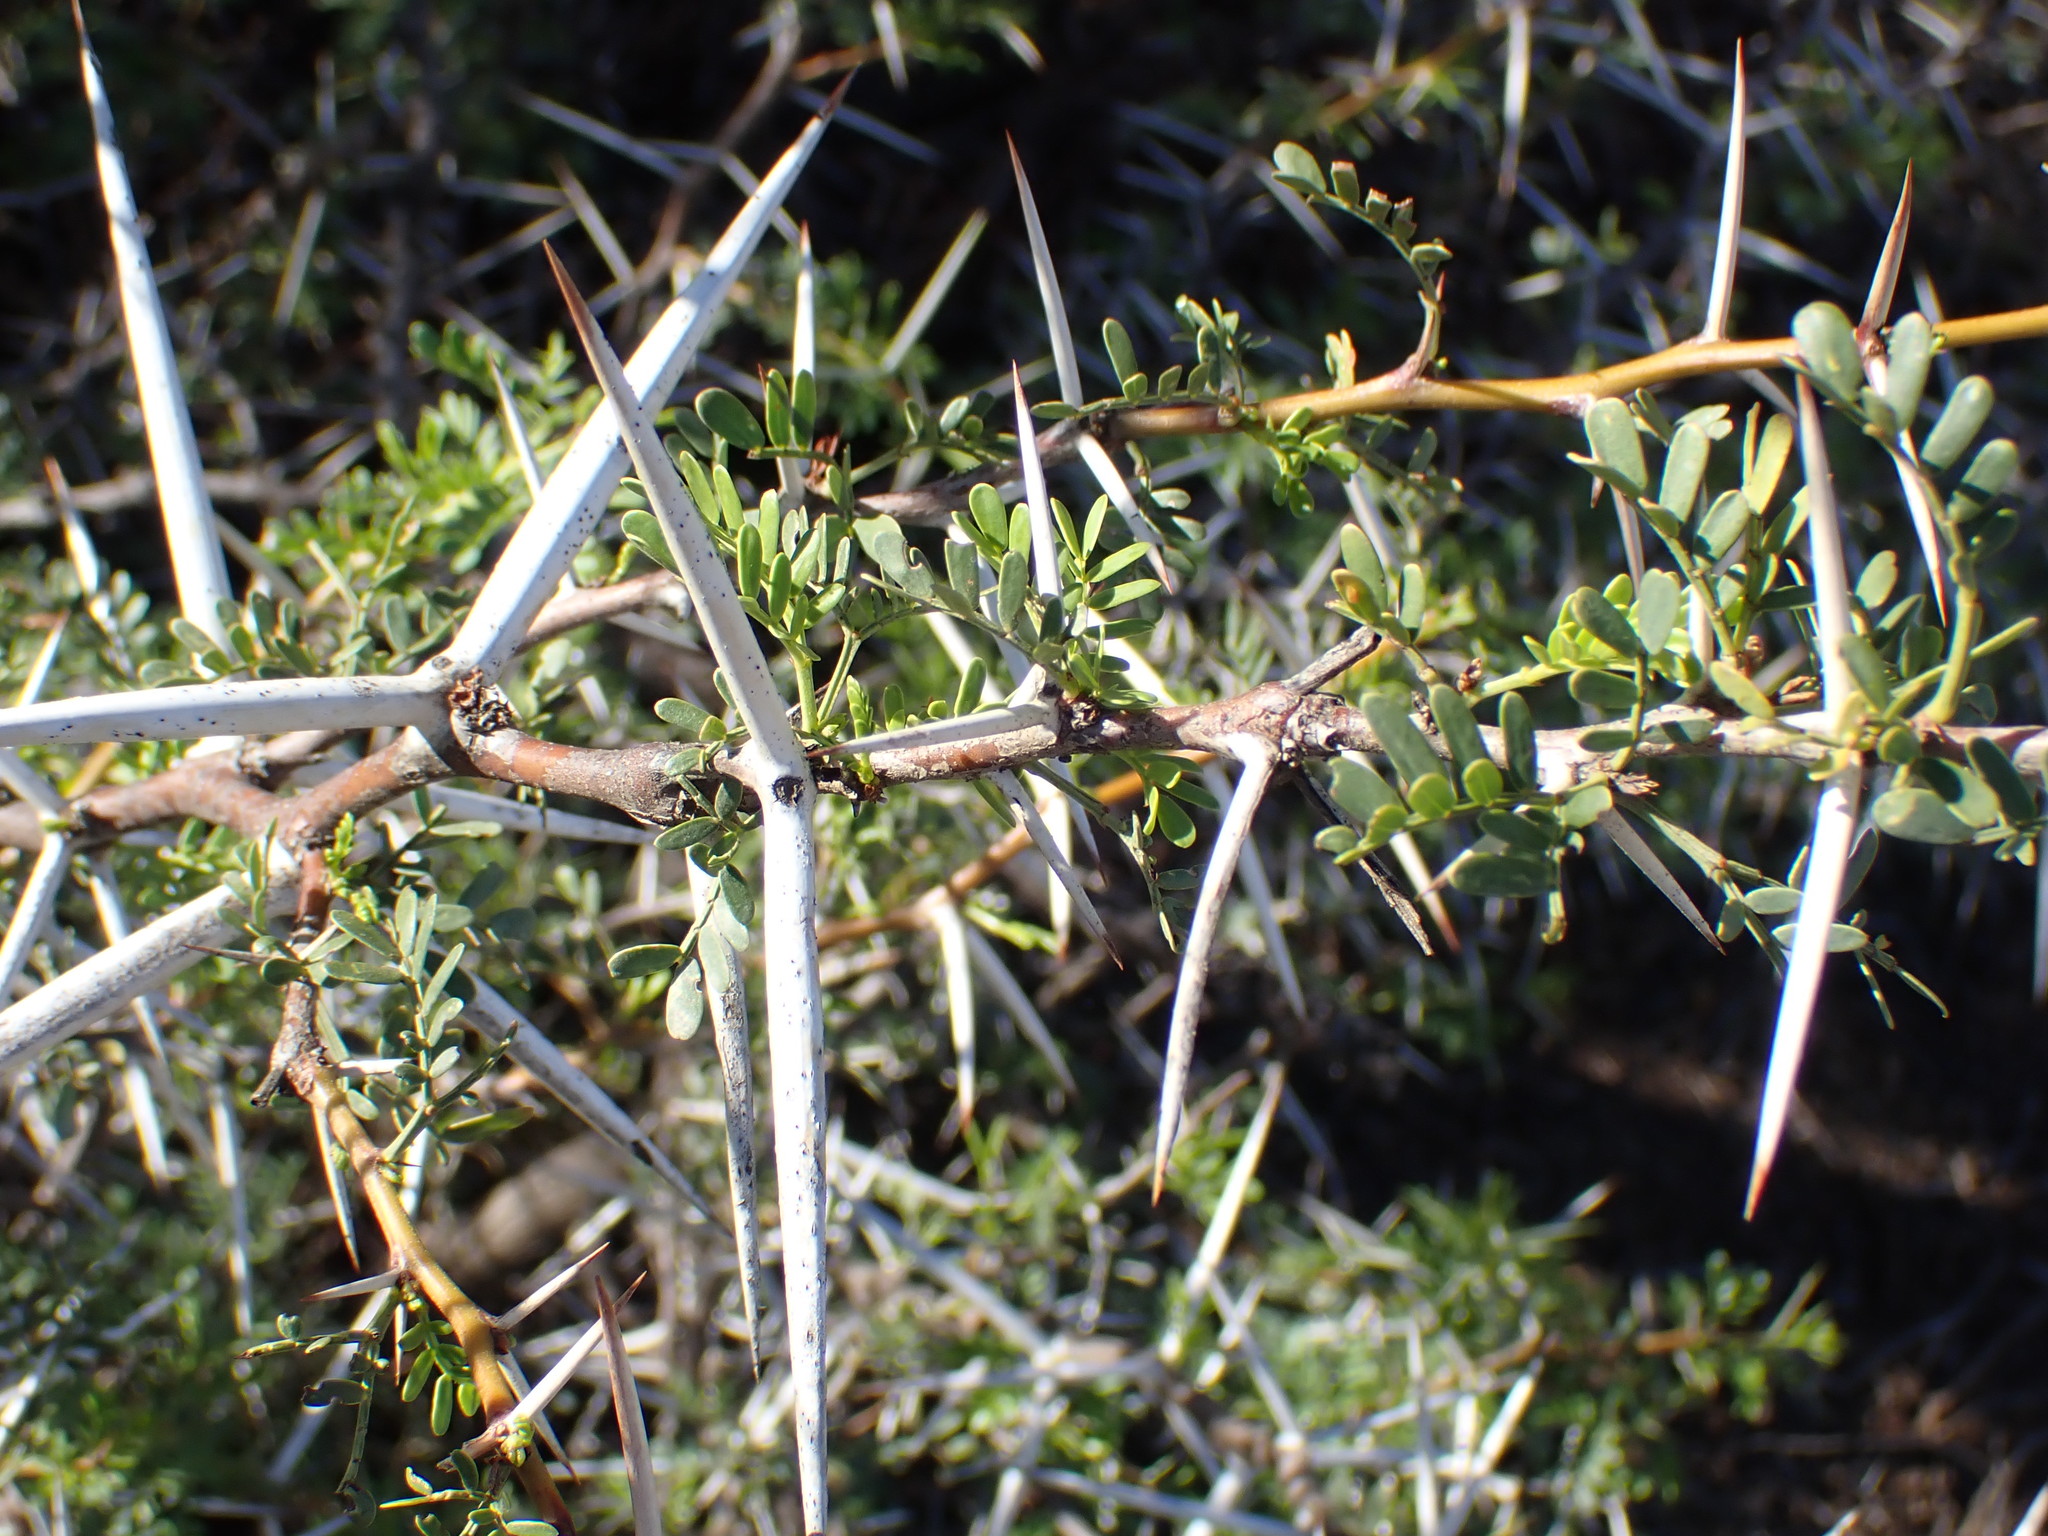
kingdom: Plantae
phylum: Tracheophyta
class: Magnoliopsida
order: Fabales
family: Fabaceae
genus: Vachellia
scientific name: Vachellia karroo
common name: Sweet thorn
